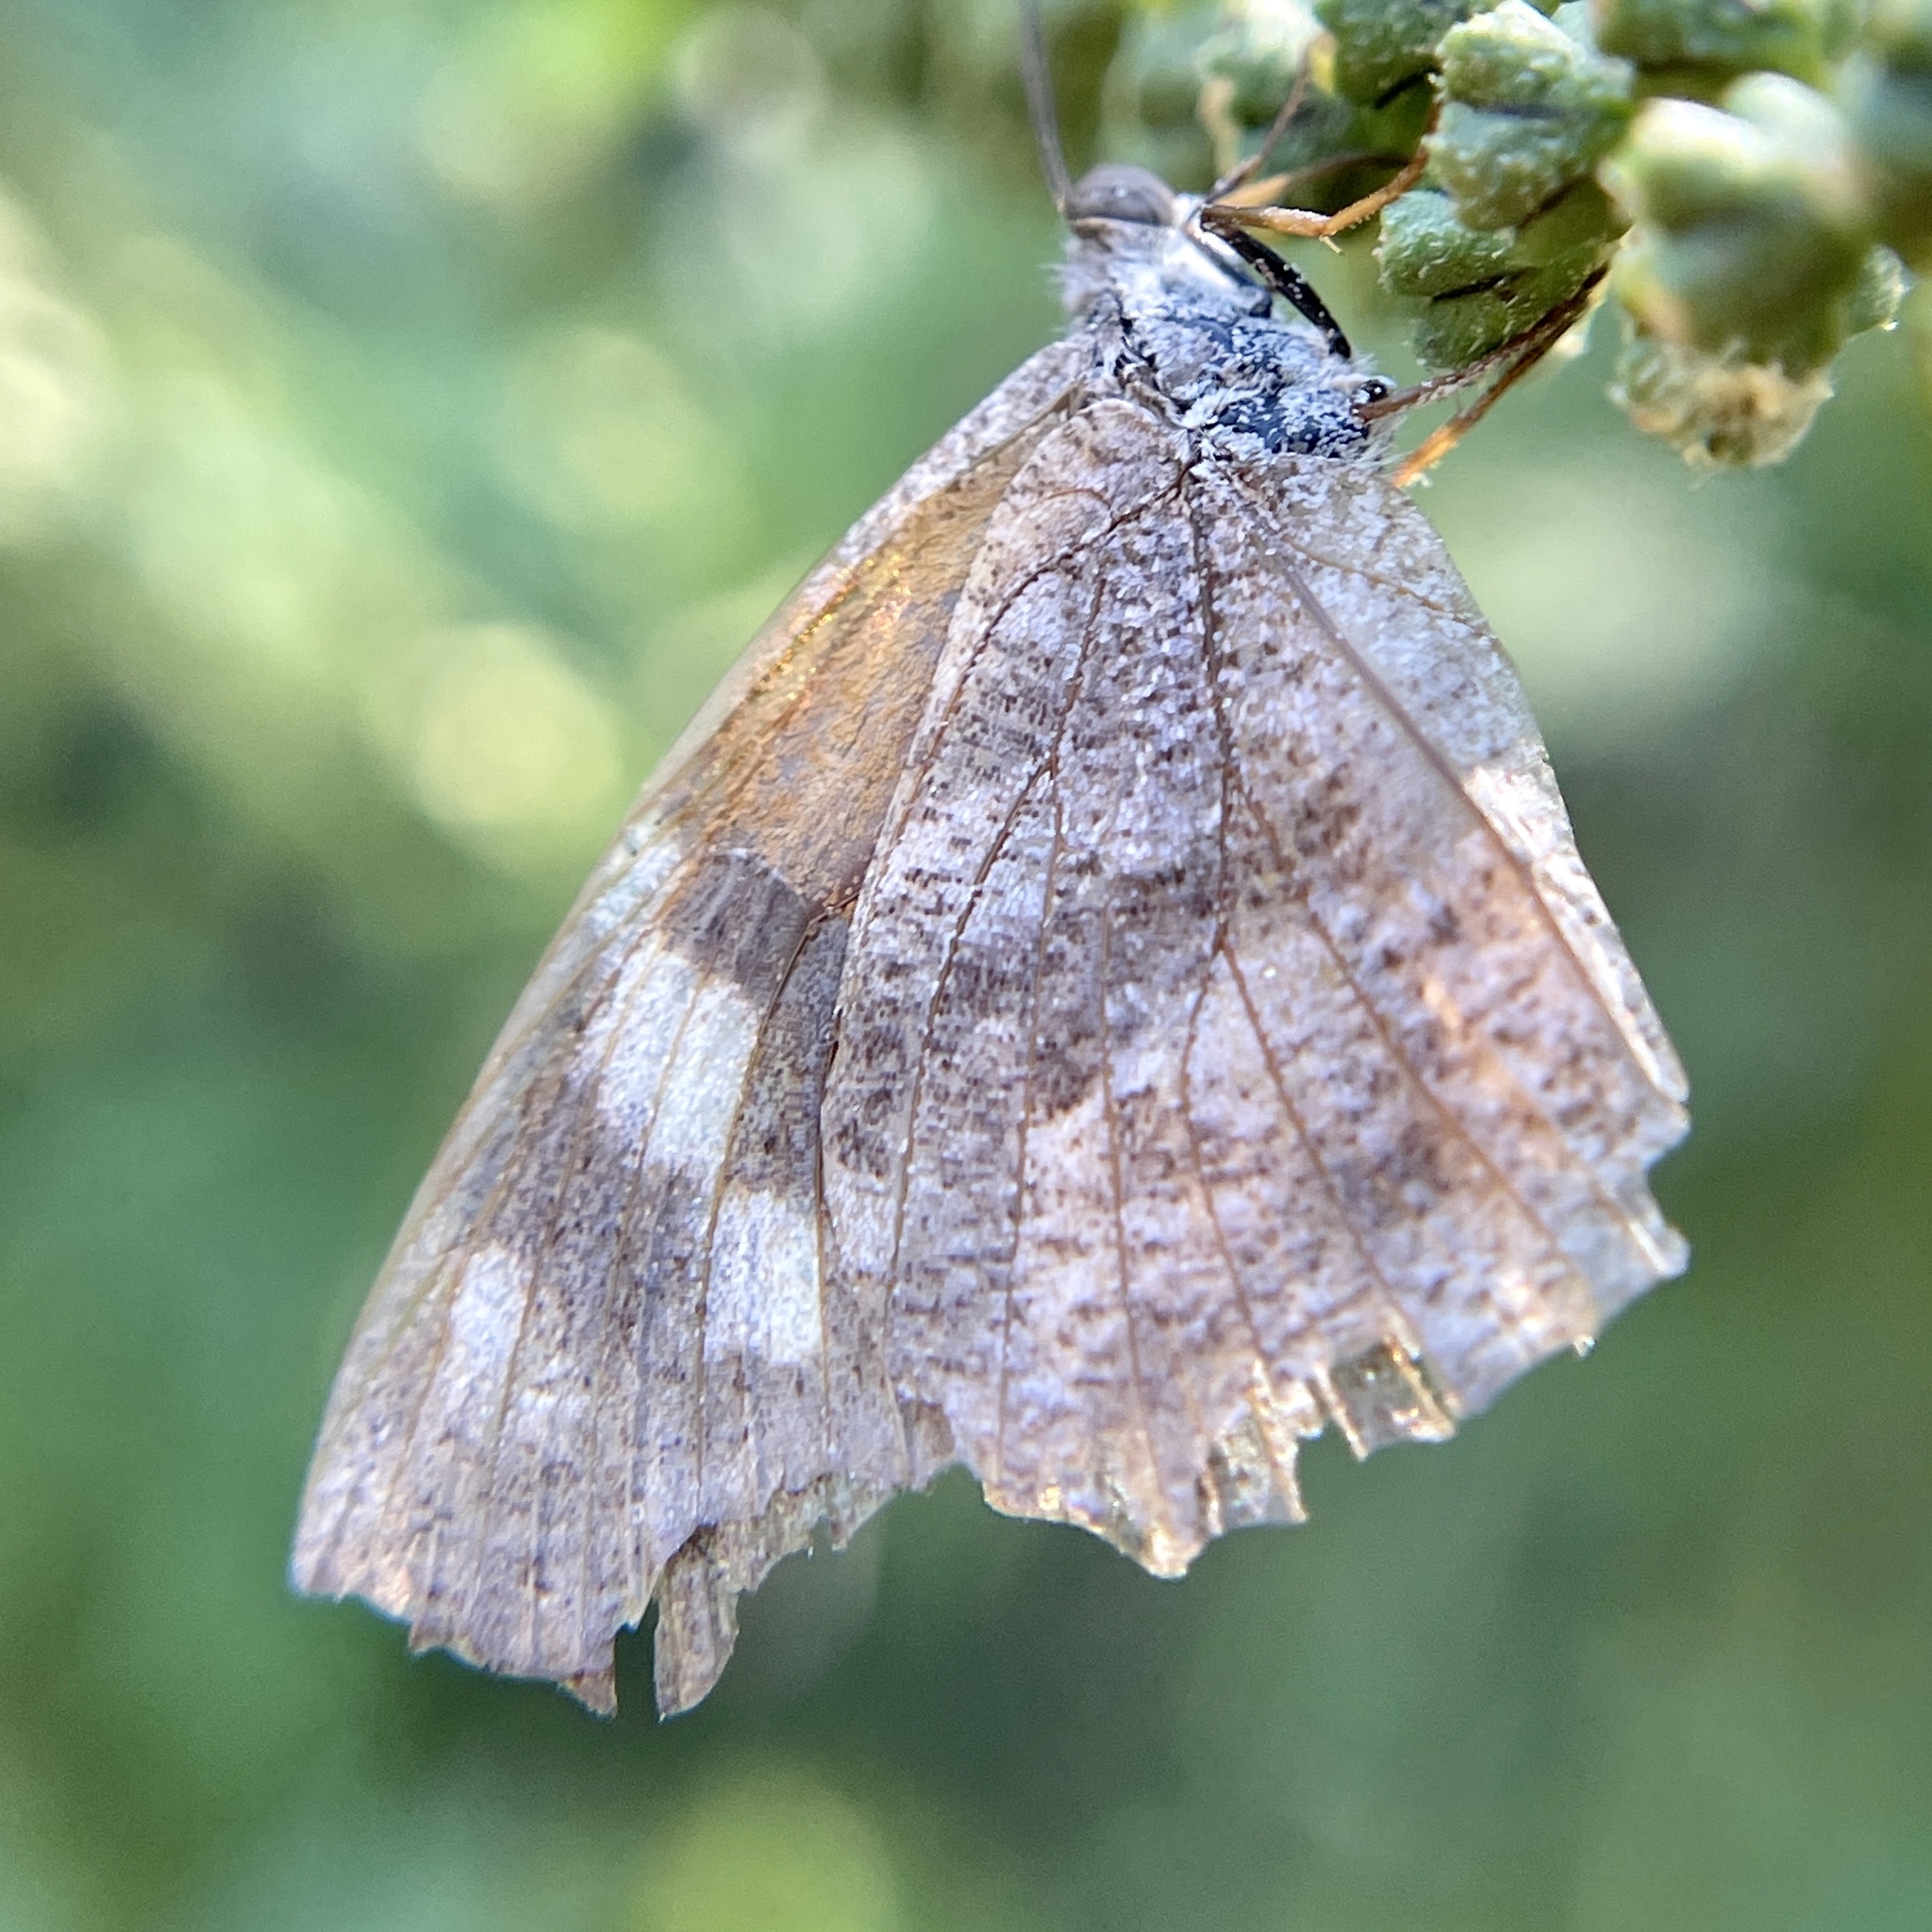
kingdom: Animalia
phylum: Arthropoda
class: Insecta
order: Lepidoptera
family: Nymphalidae
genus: Libytheana
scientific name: Libytheana carinenta
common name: American snout
